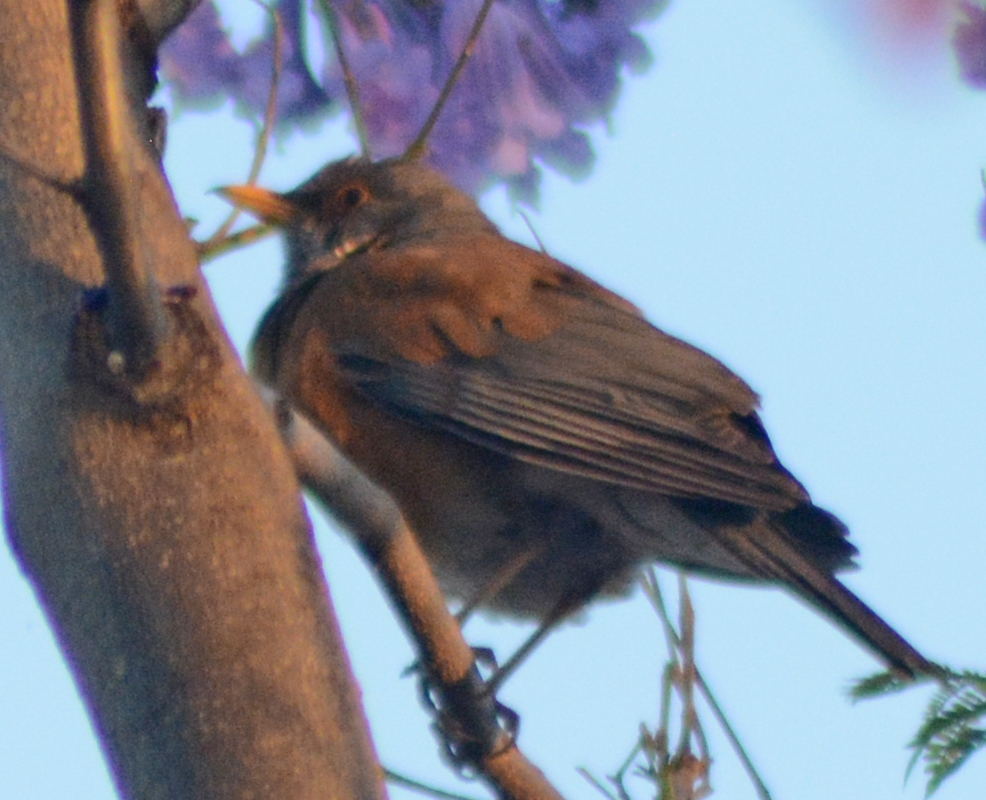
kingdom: Animalia
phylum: Chordata
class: Aves
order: Passeriformes
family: Turdidae
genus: Turdus
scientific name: Turdus rufopalliatus
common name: Rufous-backed robin
